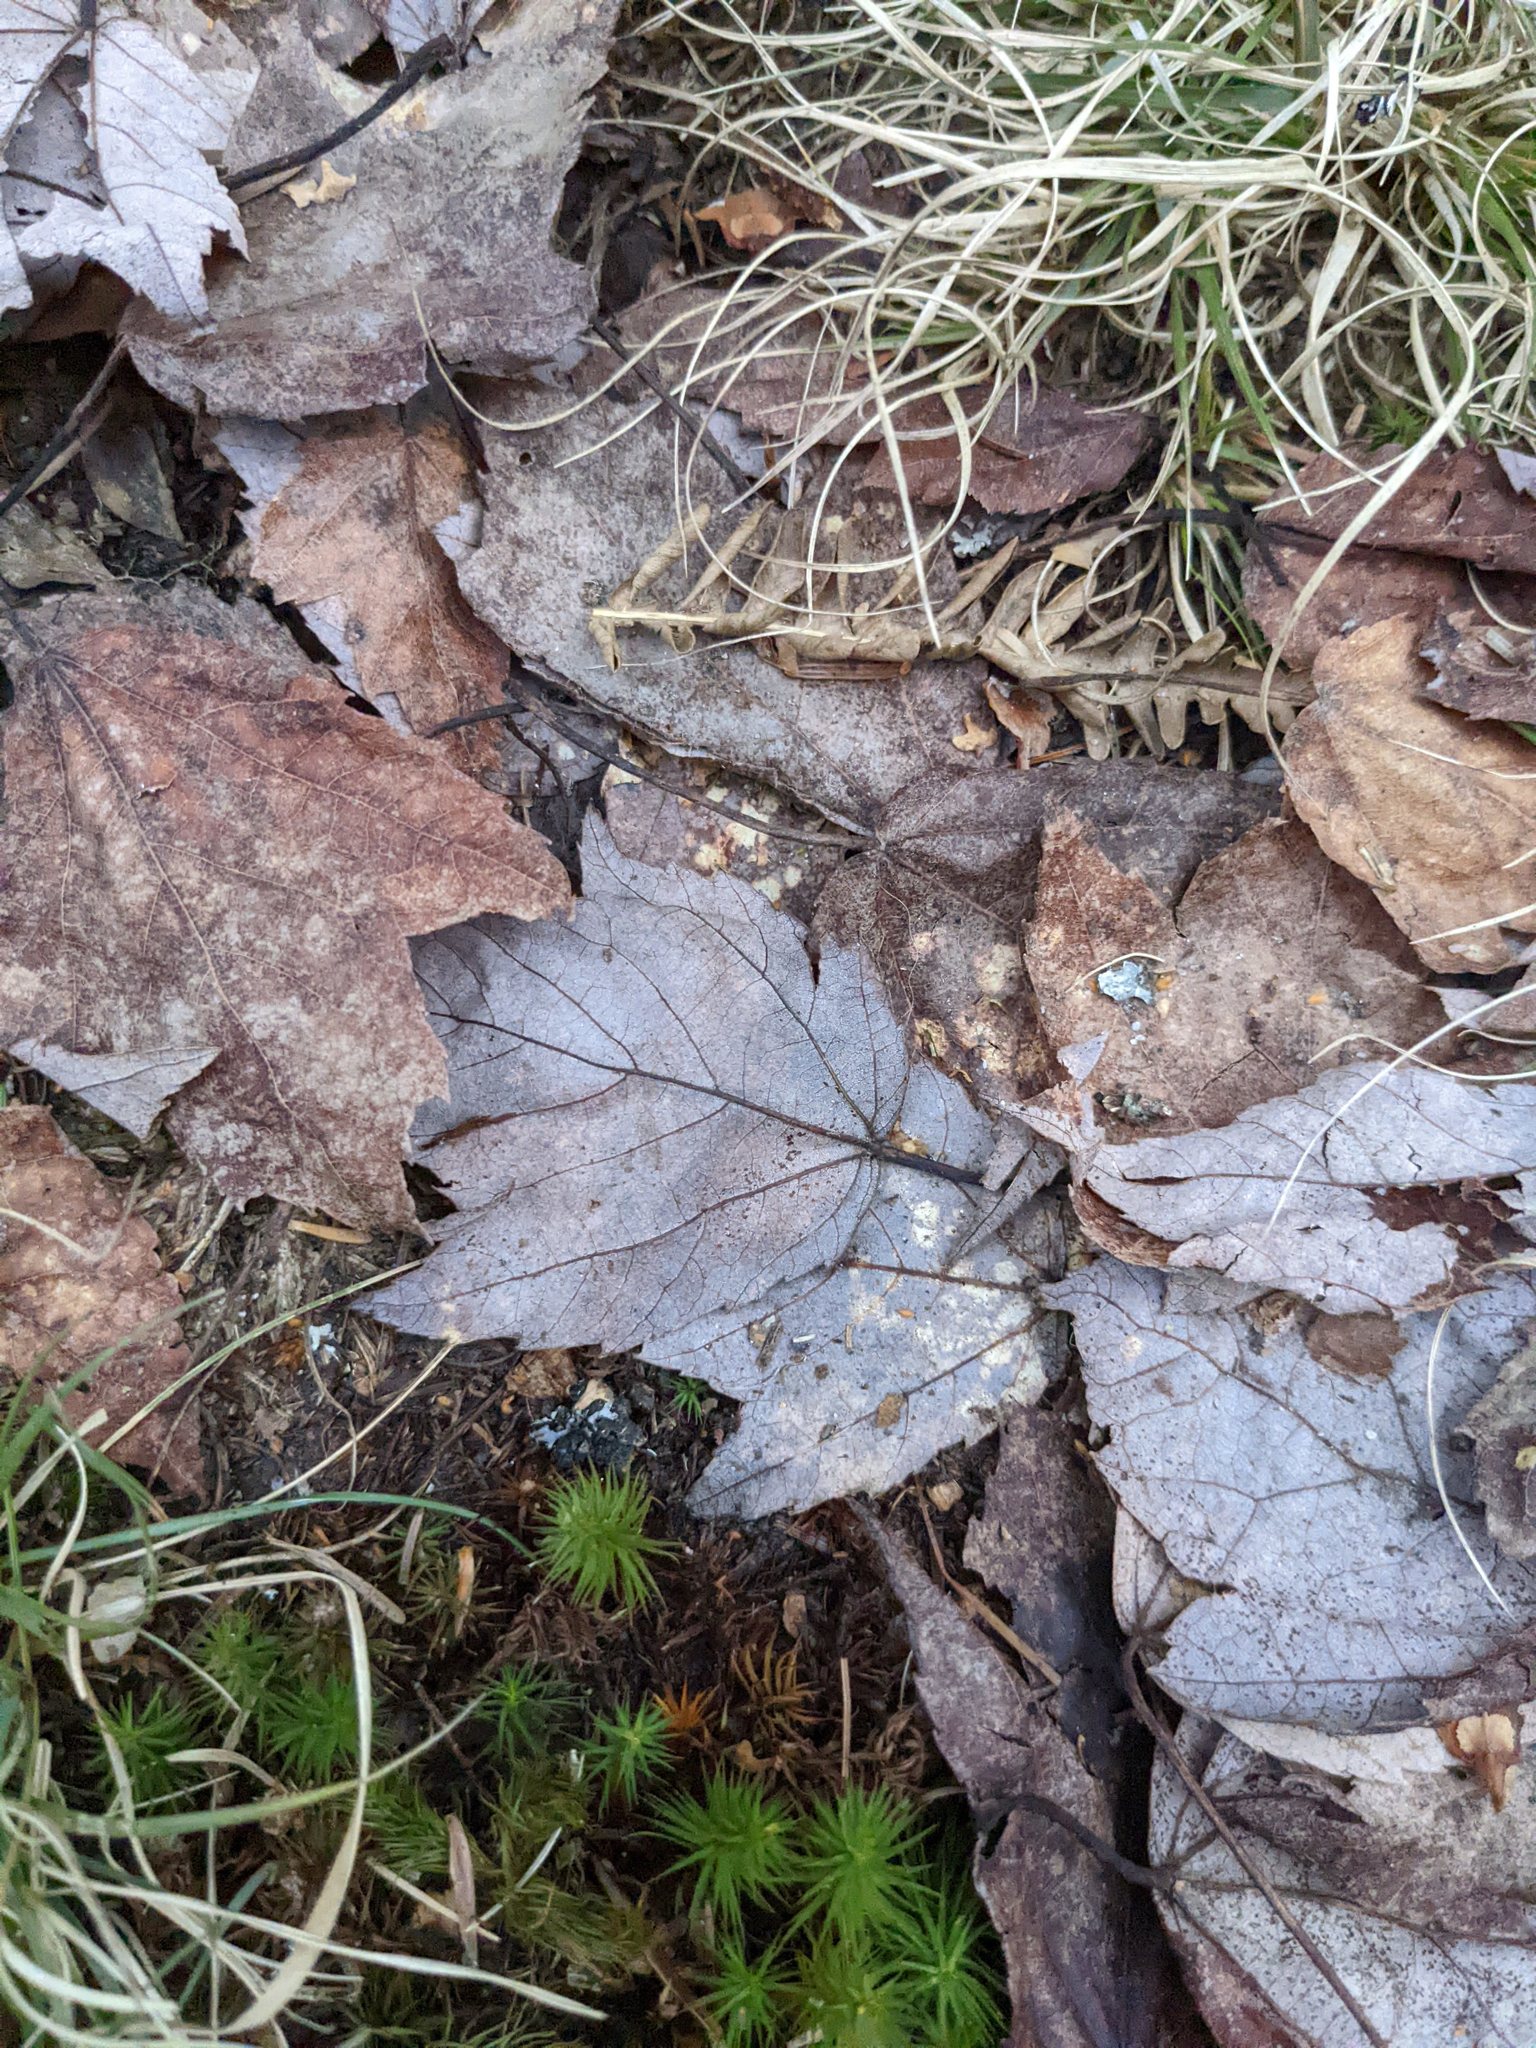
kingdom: Plantae
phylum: Tracheophyta
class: Magnoliopsida
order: Sapindales
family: Sapindaceae
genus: Acer
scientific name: Acer rubrum
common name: Red maple
